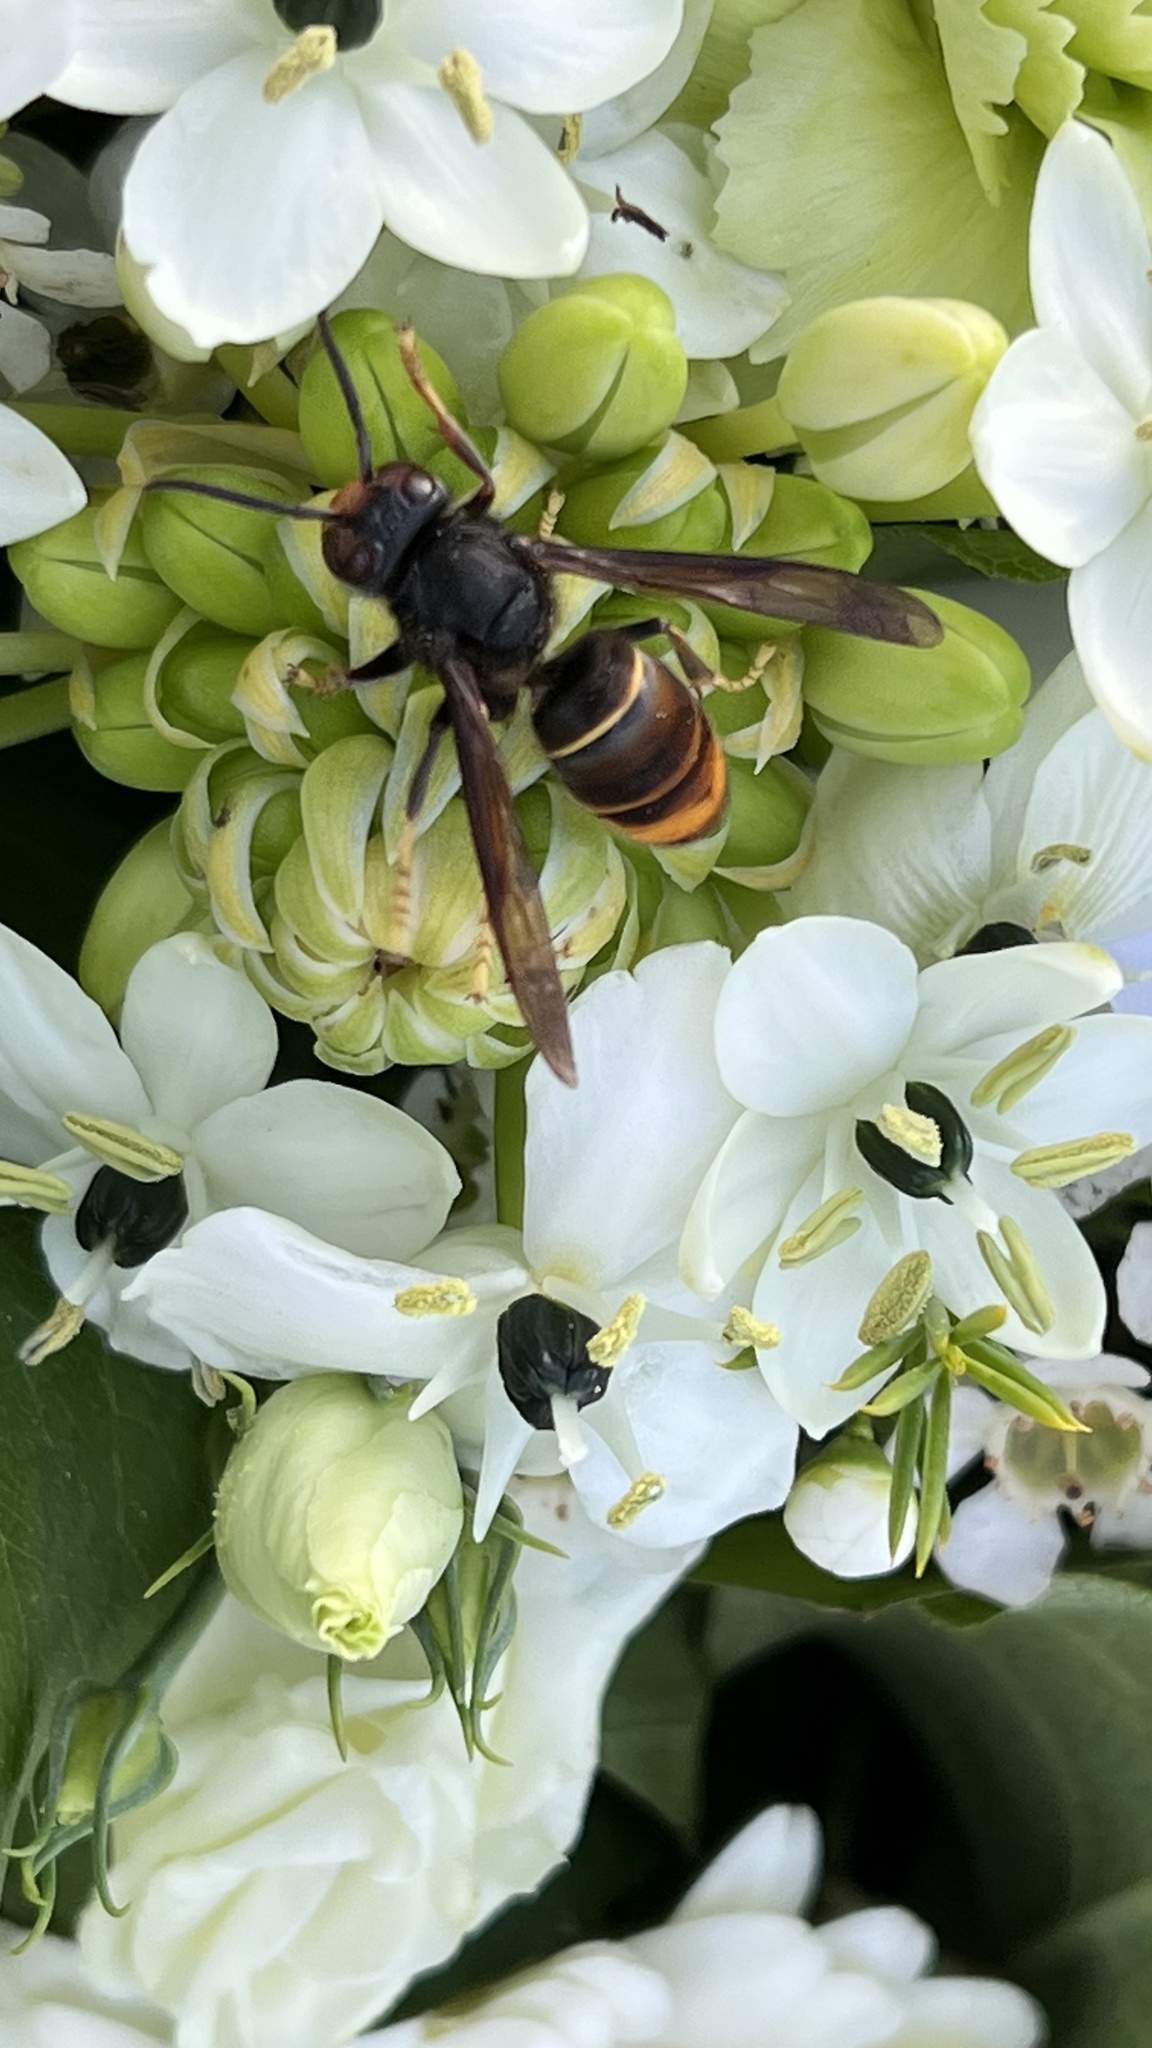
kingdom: Animalia
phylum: Arthropoda
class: Insecta
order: Hymenoptera
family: Vespidae
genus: Vespa
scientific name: Vespa velutina
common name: Asian hornet
